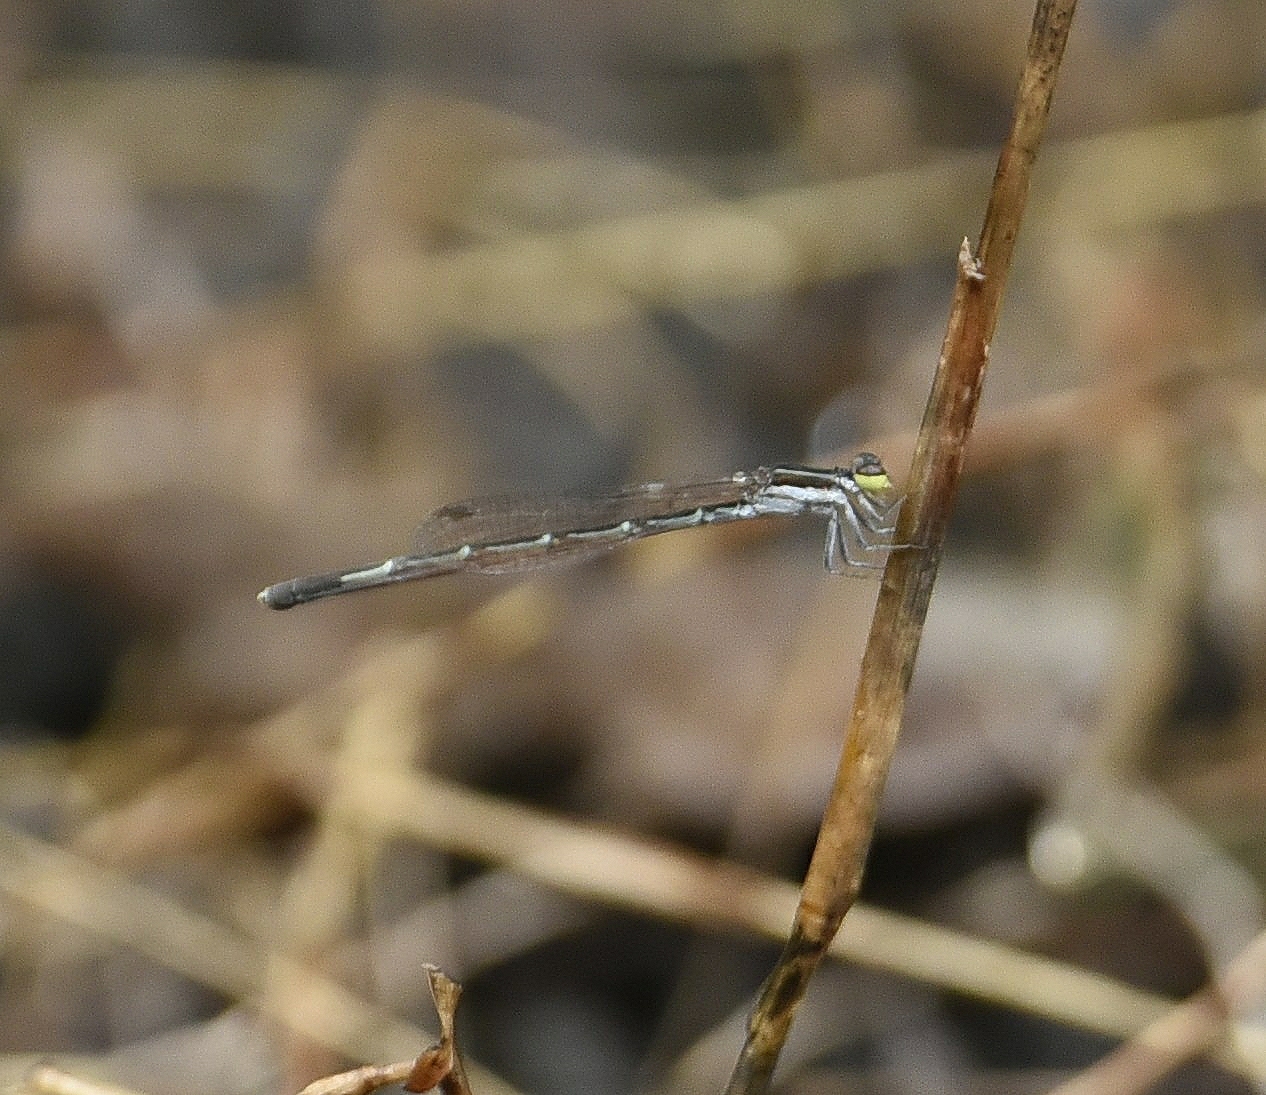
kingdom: Animalia
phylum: Arthropoda
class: Insecta
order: Odonata
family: Coenagrionidae
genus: Agriocnemis
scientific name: Agriocnemis splendidissima
